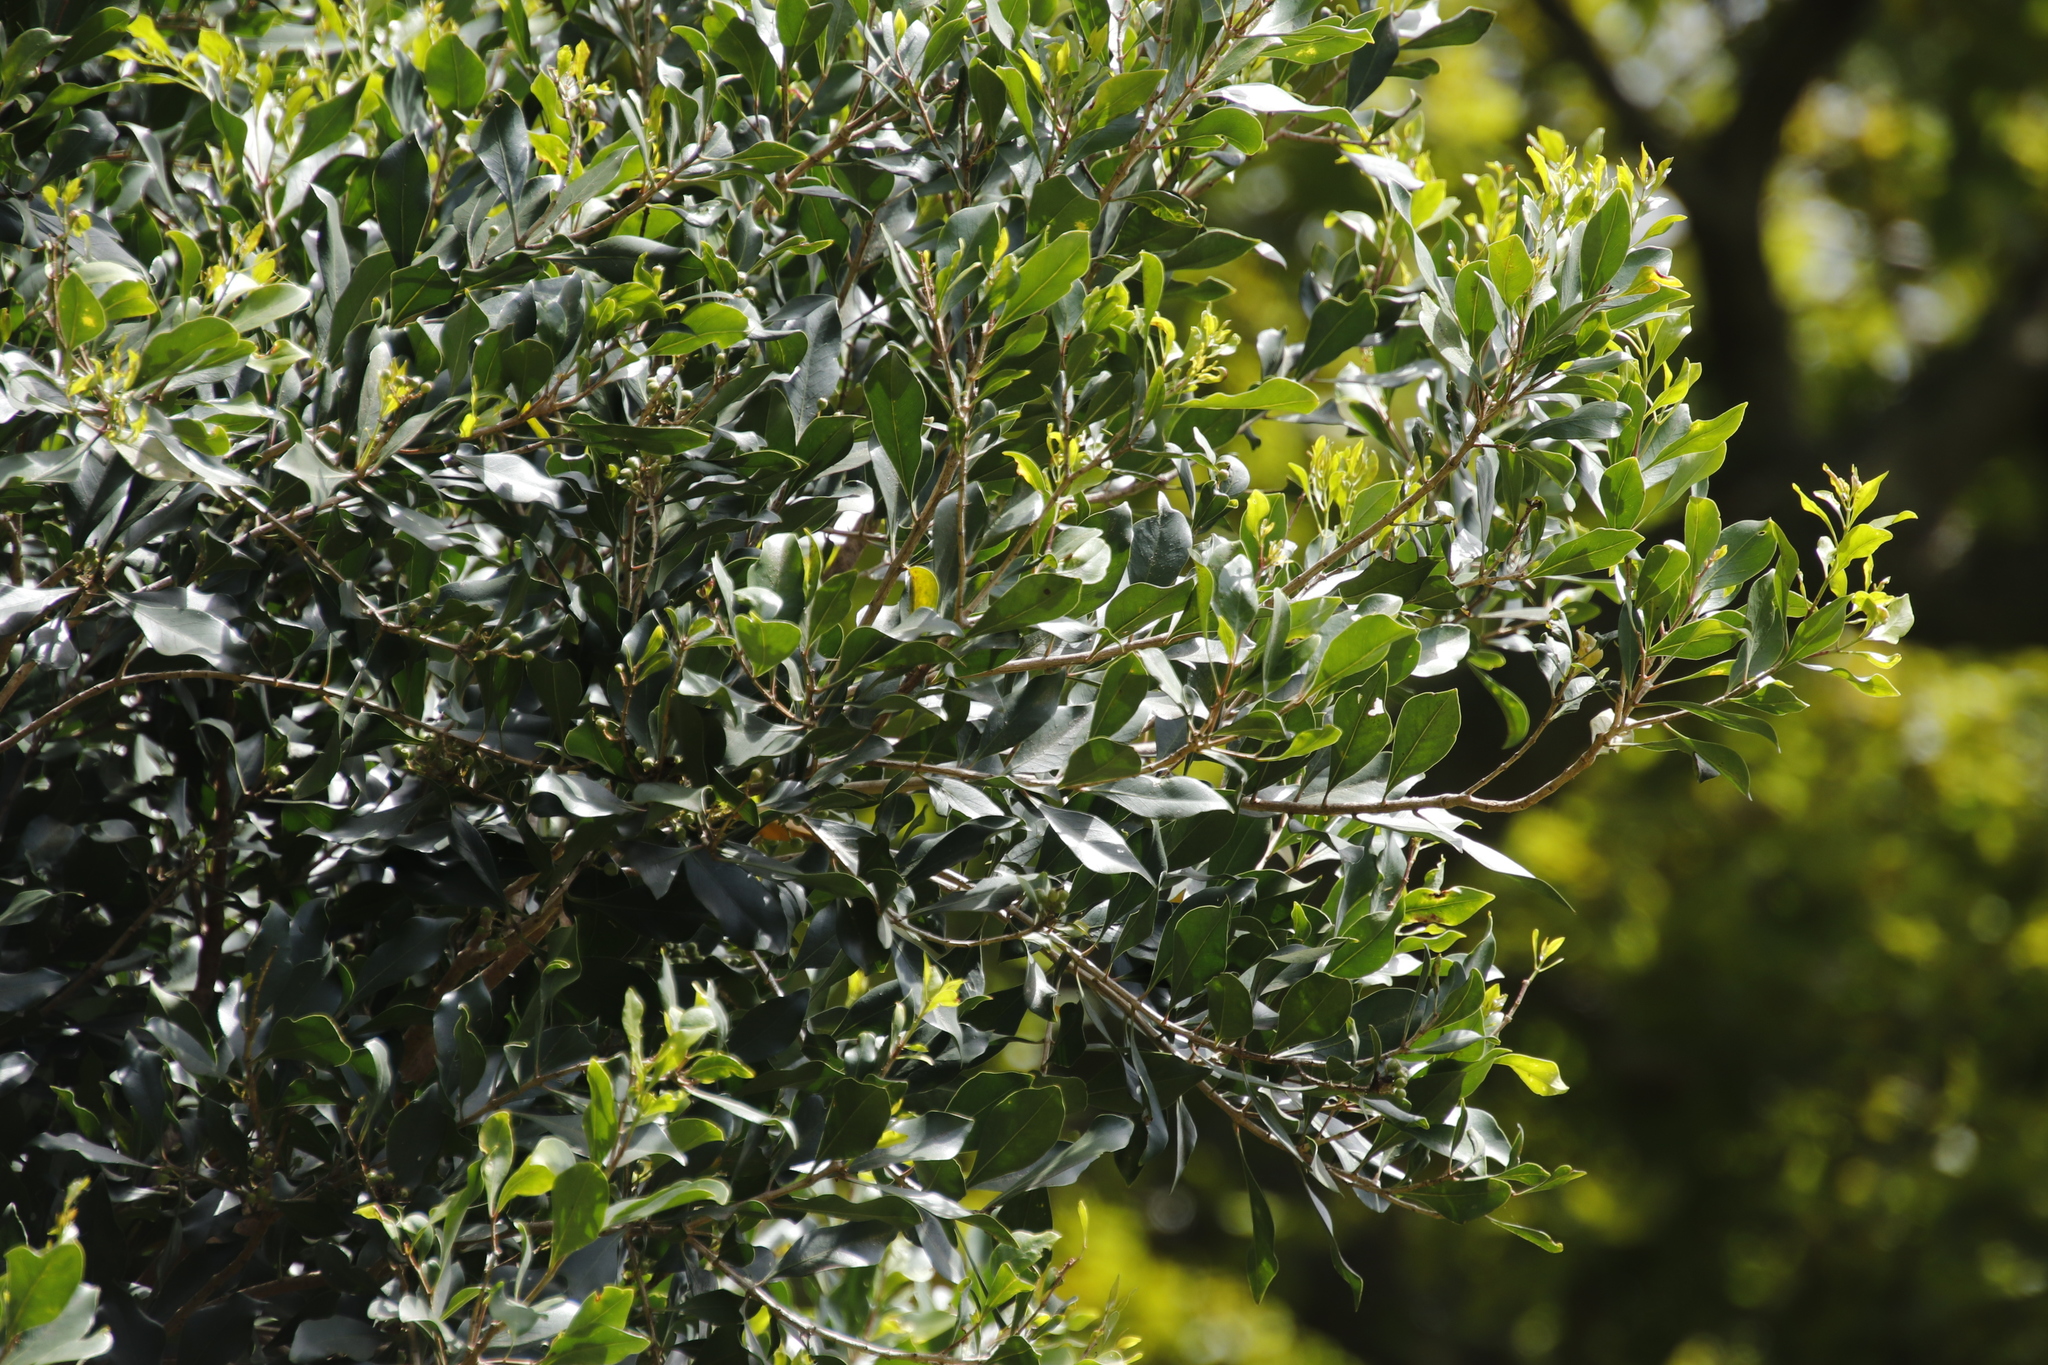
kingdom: Plantae
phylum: Tracheophyta
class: Magnoliopsida
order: Ericales
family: Ebenaceae
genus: Diospyros
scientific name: Diospyros whyteana
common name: Bladder-nut
